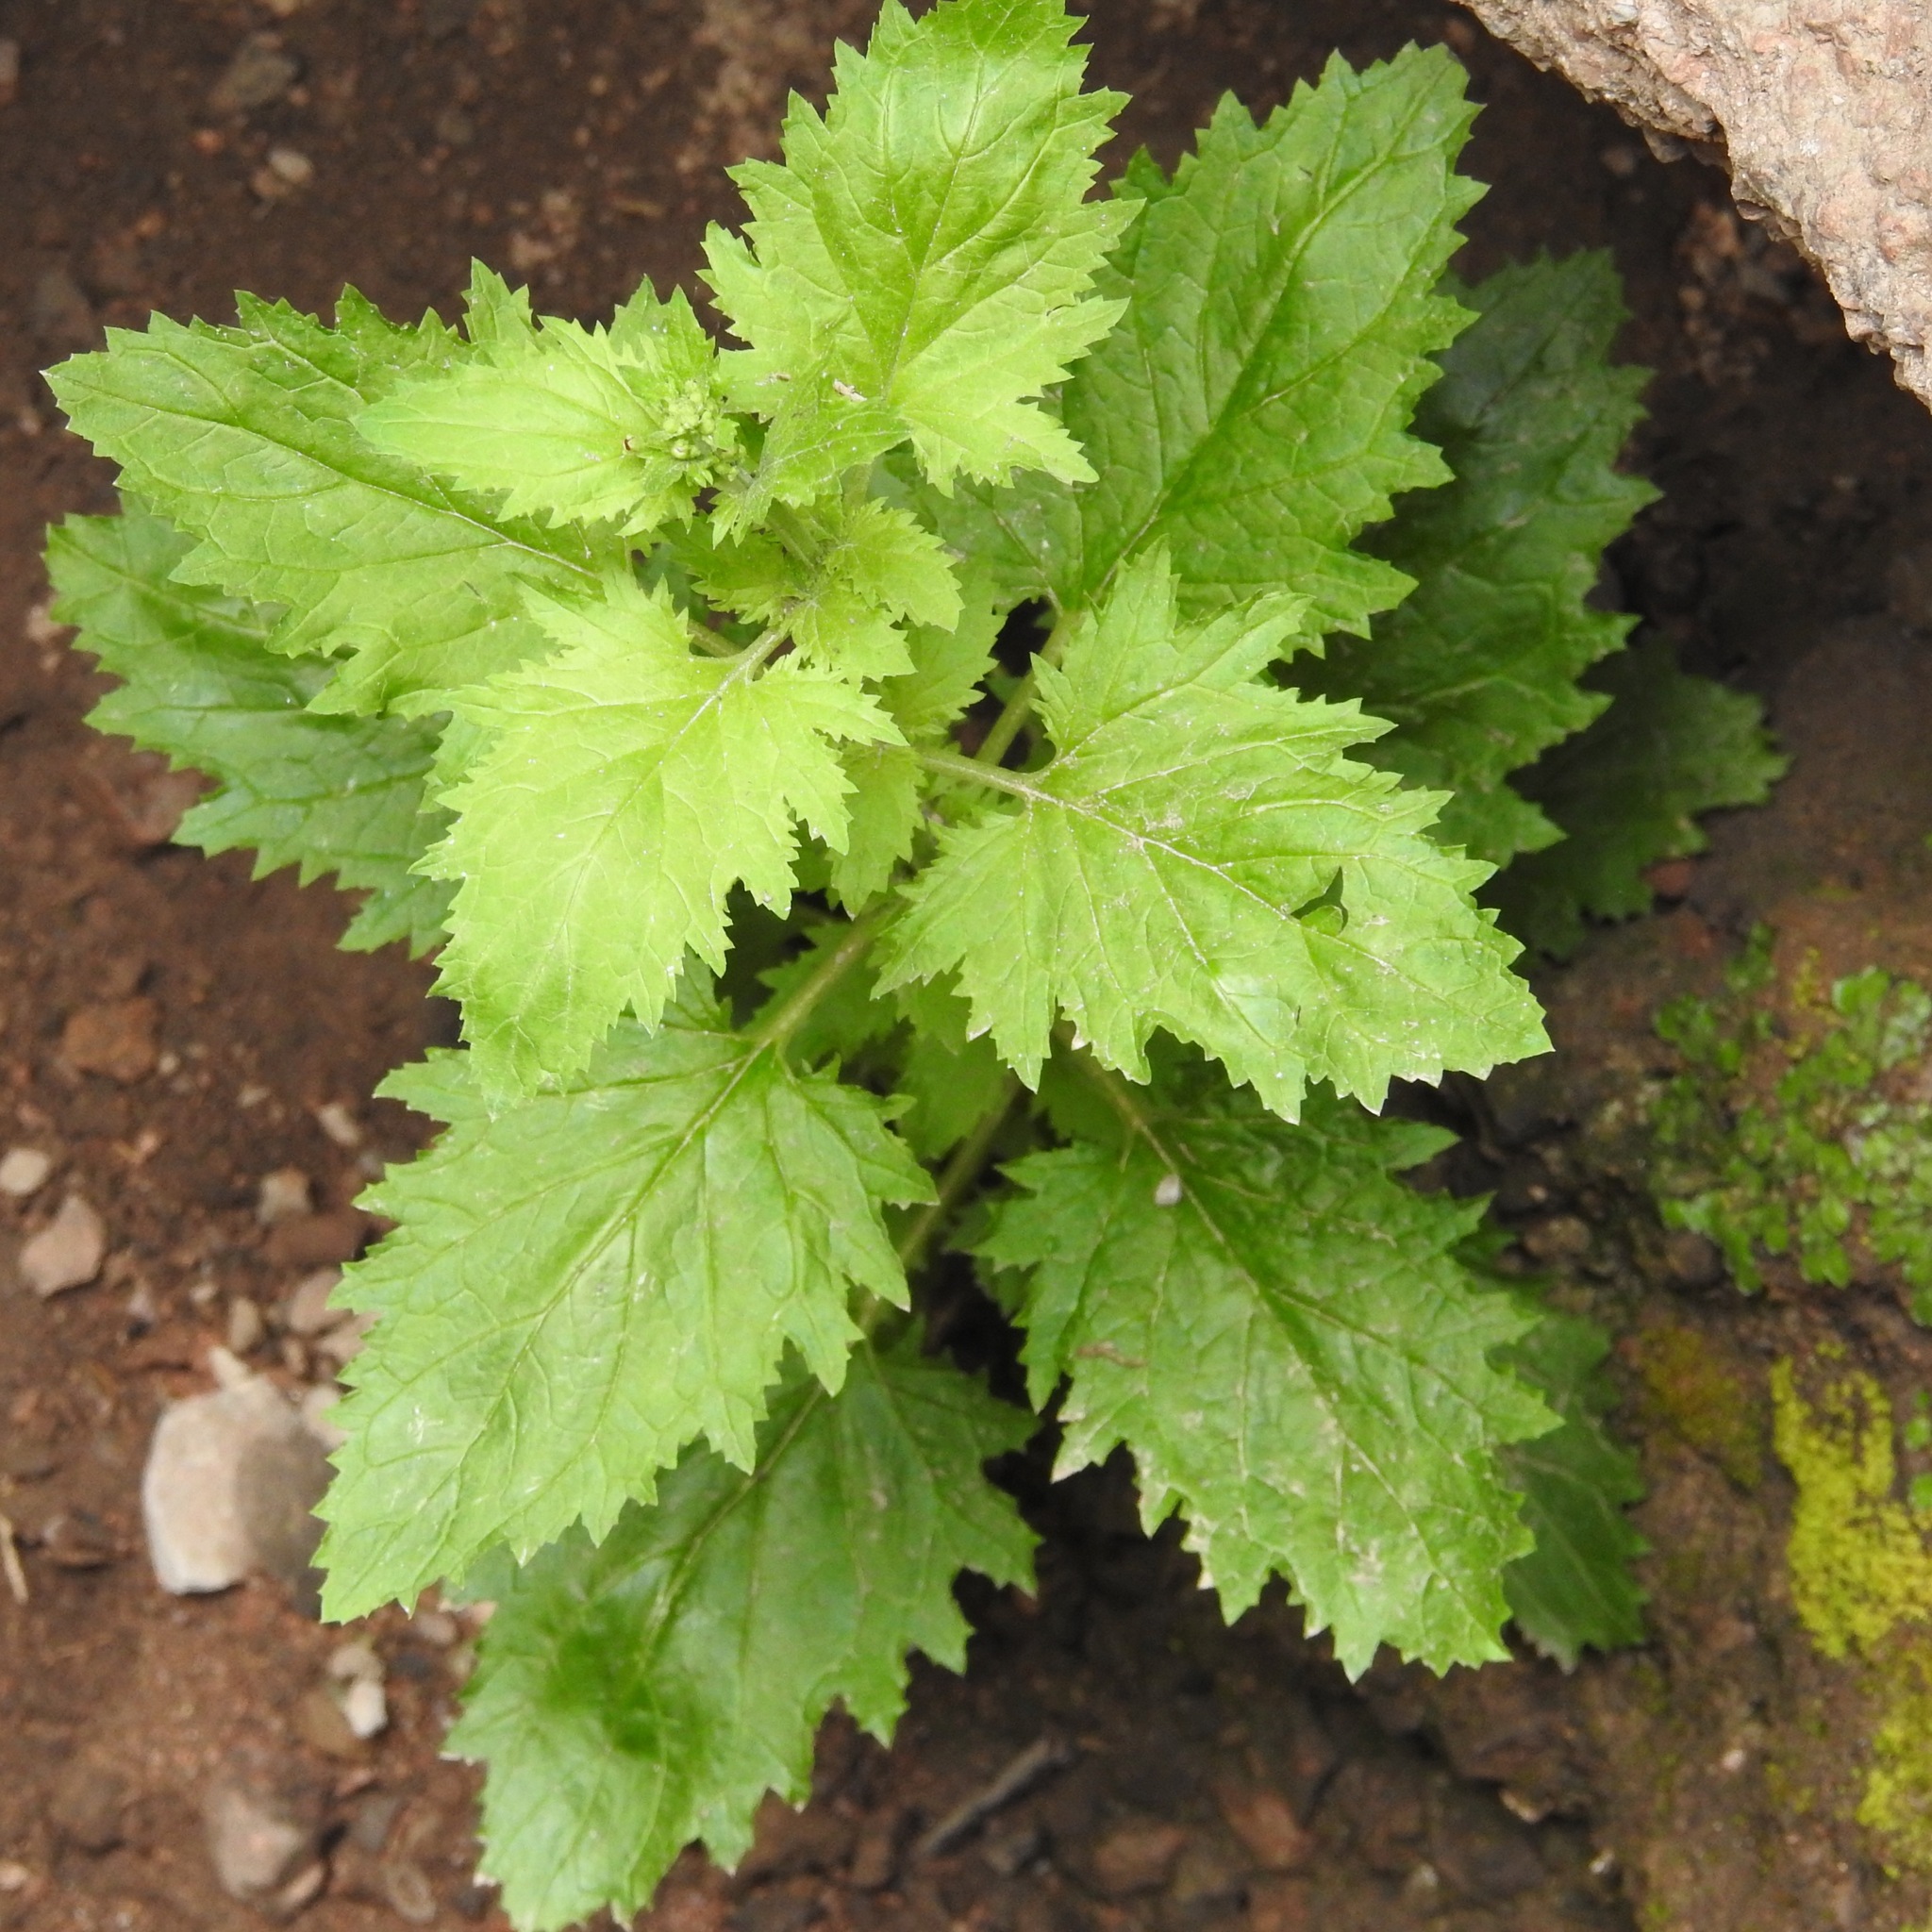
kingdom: Plantae
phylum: Tracheophyta
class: Magnoliopsida
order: Lamiales
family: Scrophulariaceae
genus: Scrophularia
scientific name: Scrophularia californica
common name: California figwort
